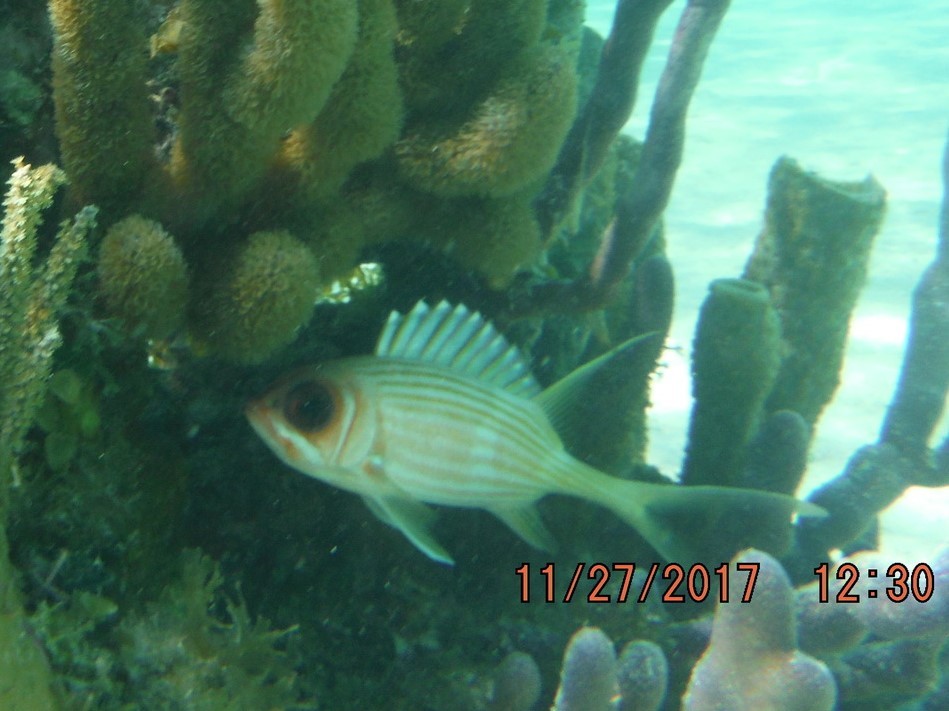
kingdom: Animalia
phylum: Chordata
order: Beryciformes
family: Holocentridae
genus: Holocentrus
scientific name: Holocentrus rufus
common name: Longspine squirrelfish
